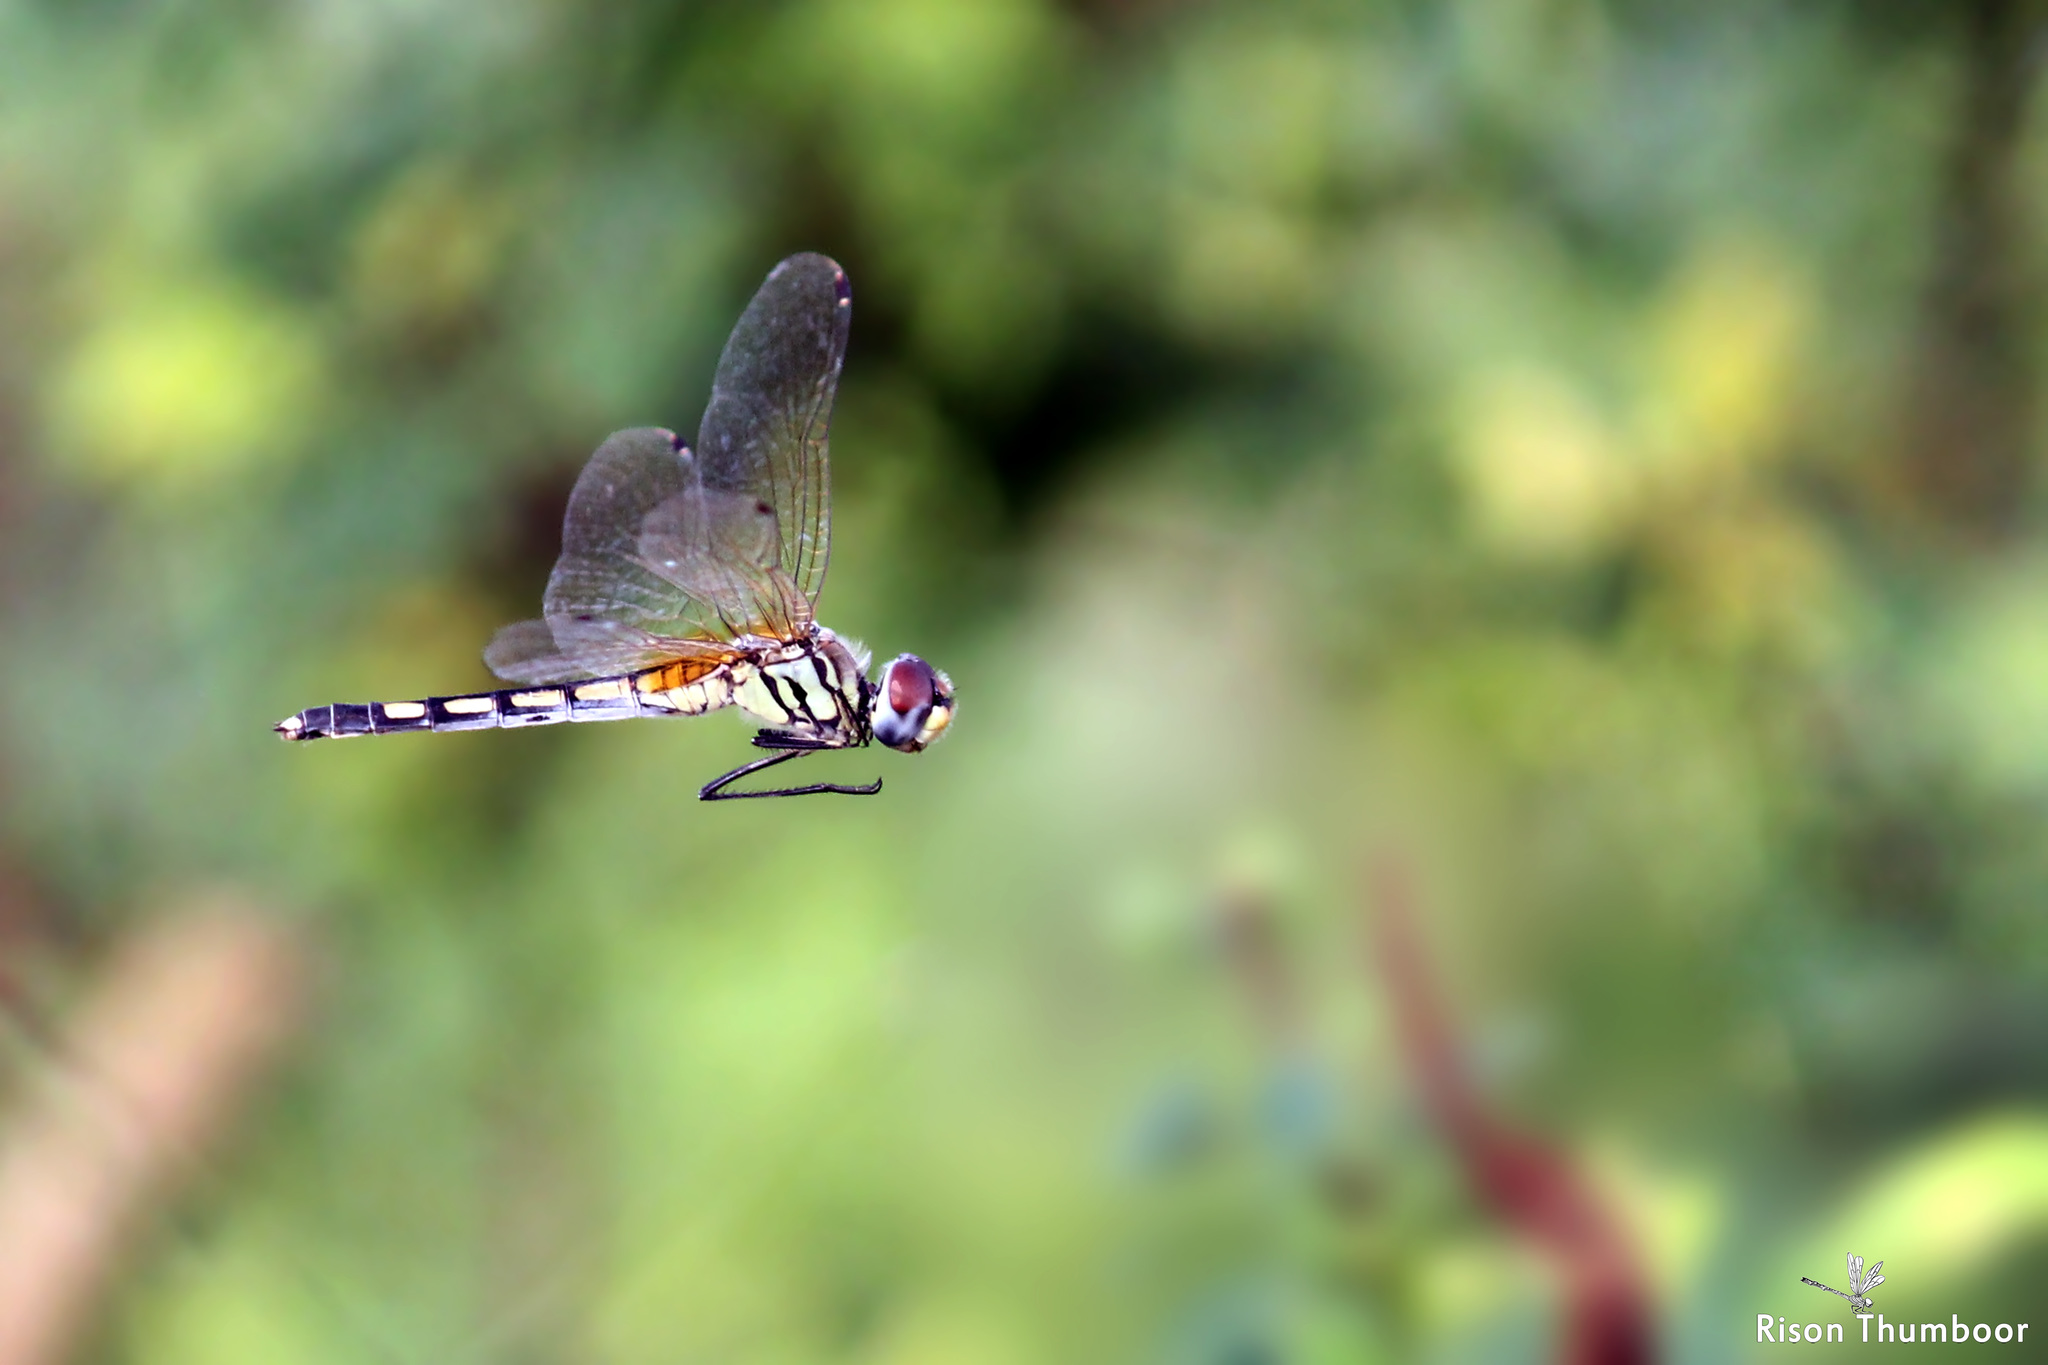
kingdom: Animalia
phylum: Arthropoda
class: Insecta
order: Odonata
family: Libellulidae
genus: Trithemis
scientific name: Trithemis pallidinervis
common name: Dancing dropwing
